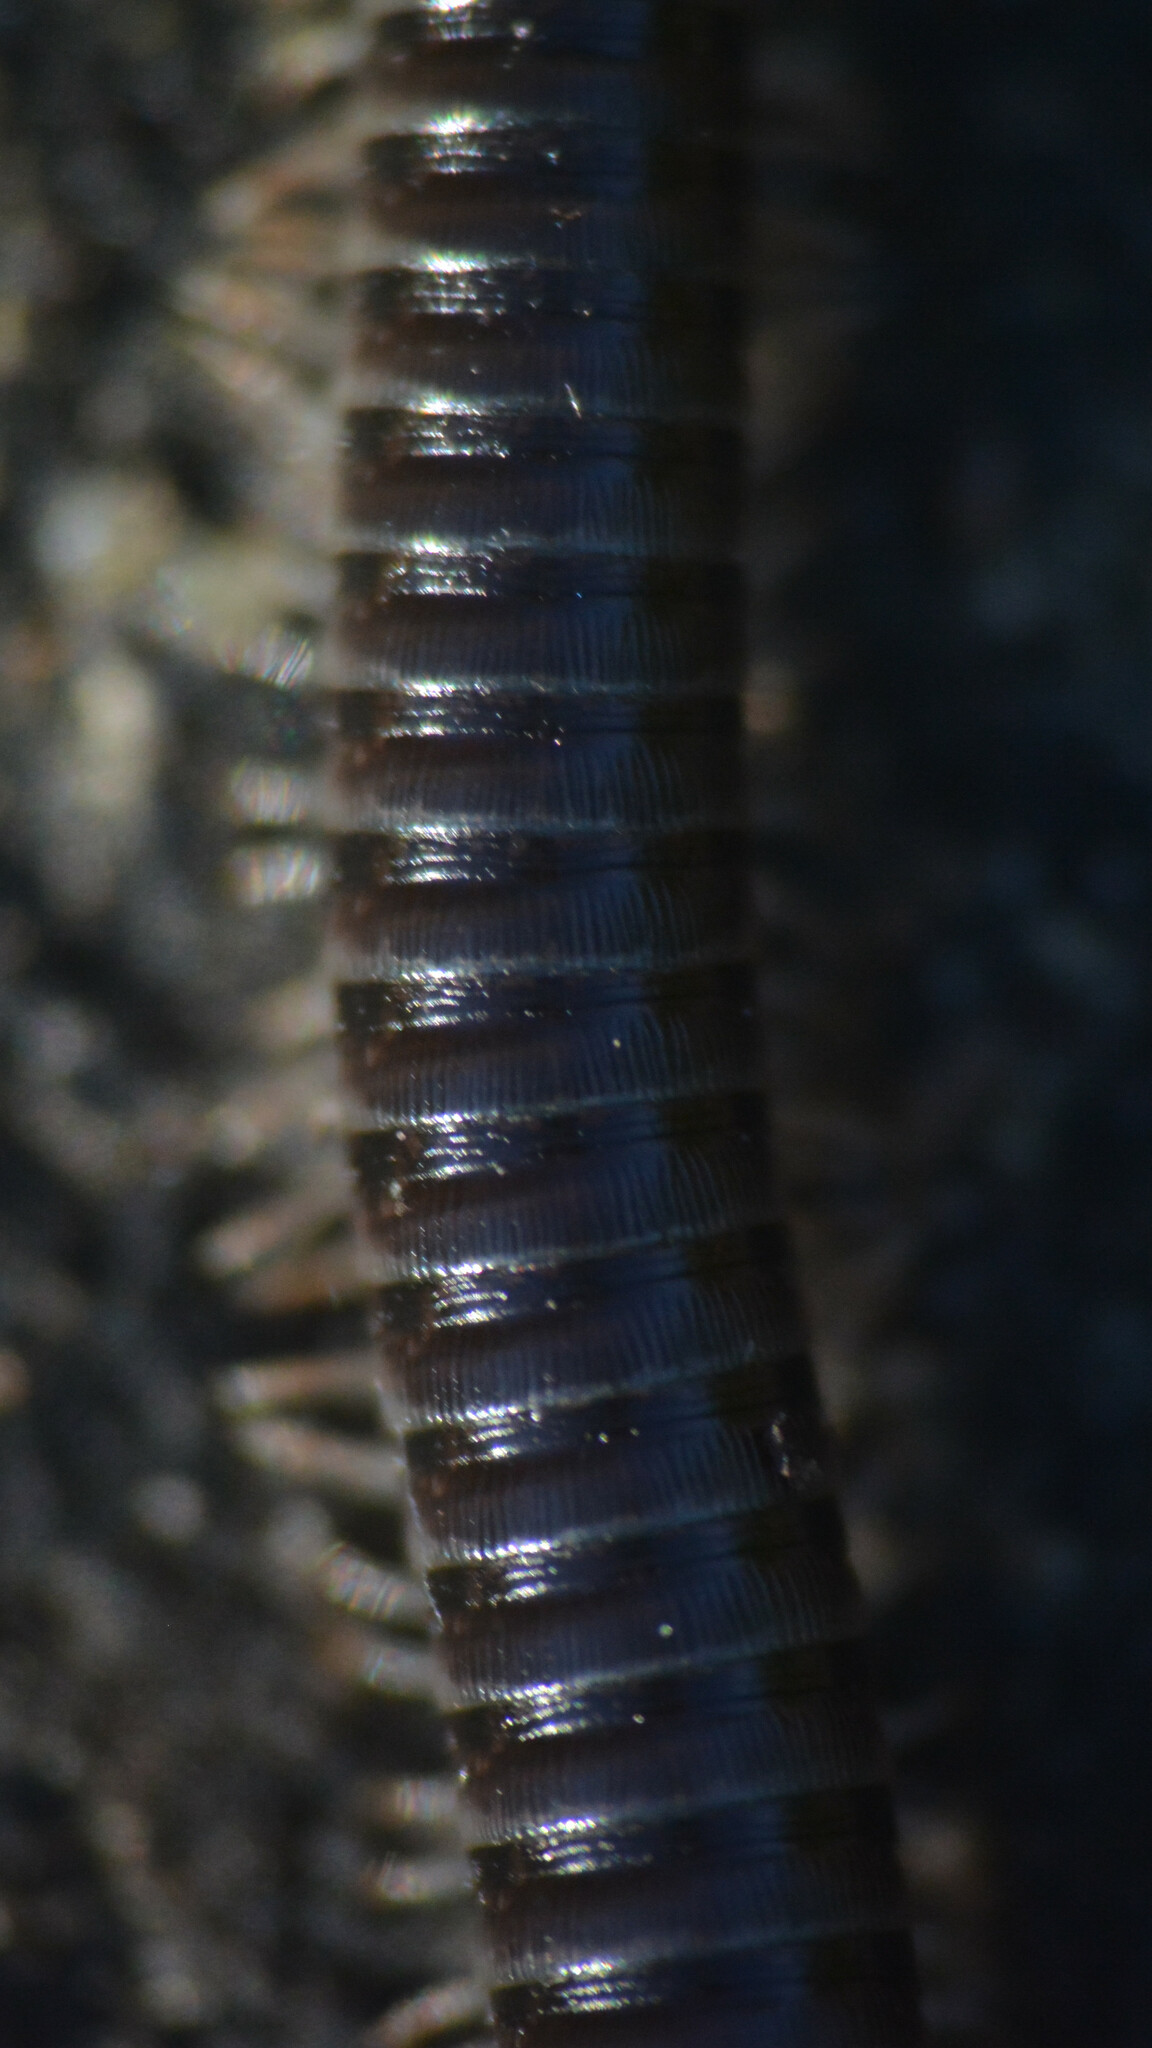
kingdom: Animalia
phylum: Arthropoda
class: Diplopoda
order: Julida
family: Julidae
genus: Tachypodoiulus
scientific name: Tachypodoiulus niger
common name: White-legged snake millipede
